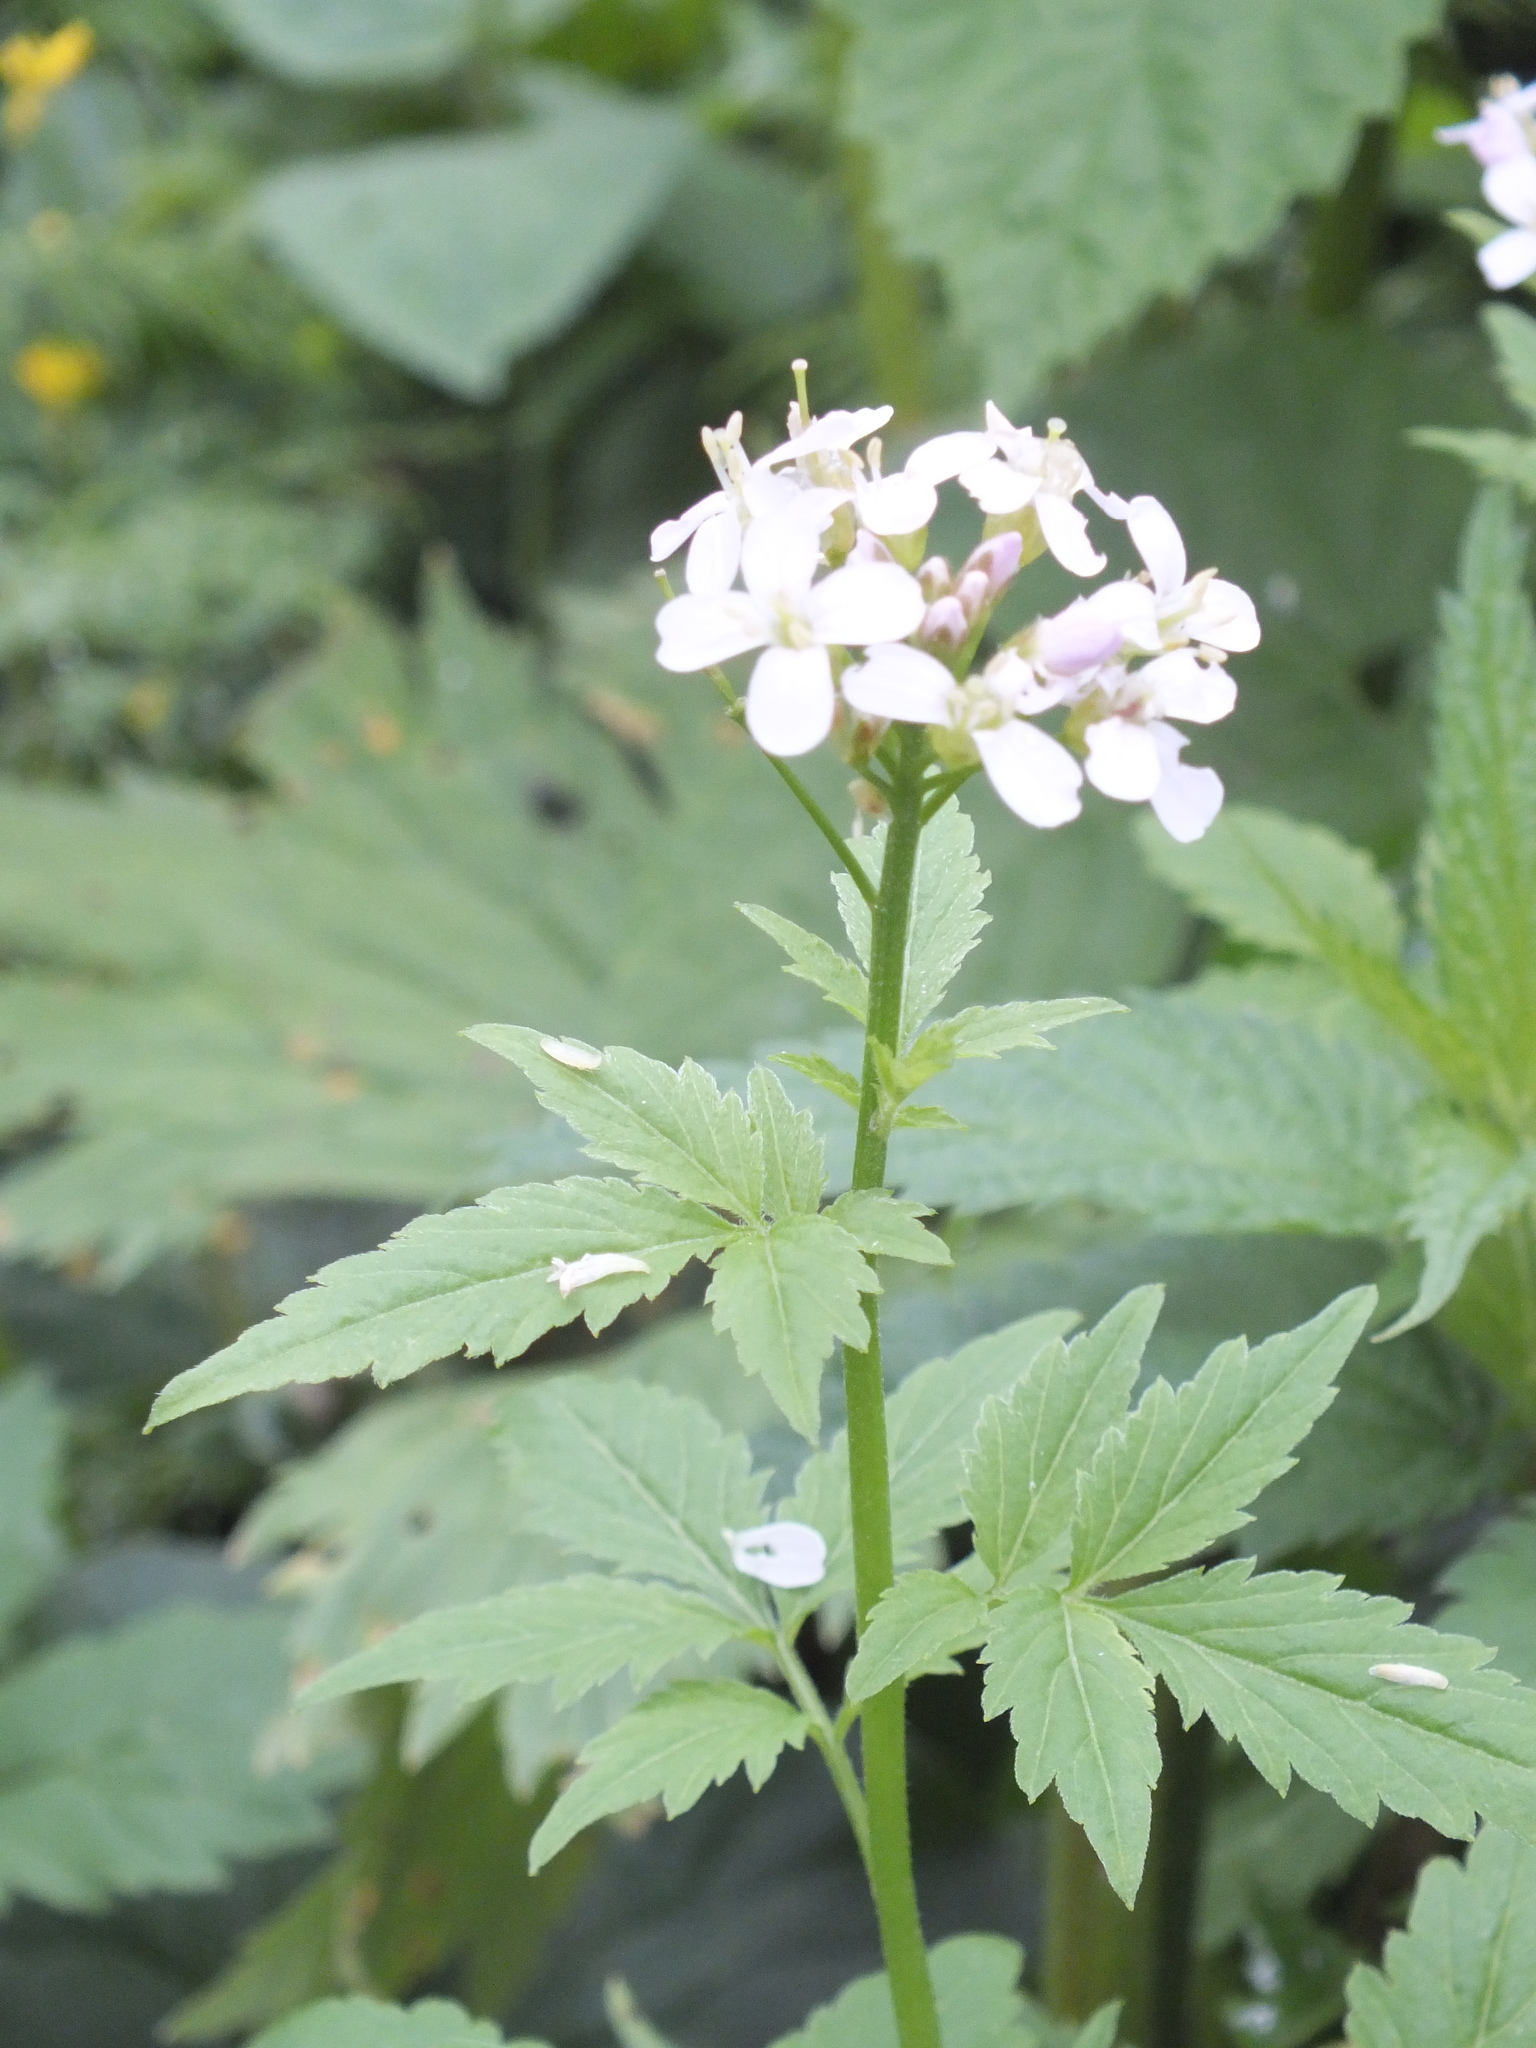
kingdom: Plantae
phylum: Tracheophyta
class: Magnoliopsida
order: Brassicales
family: Brassicaceae
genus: Cardamine
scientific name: Cardamine macrophylla
